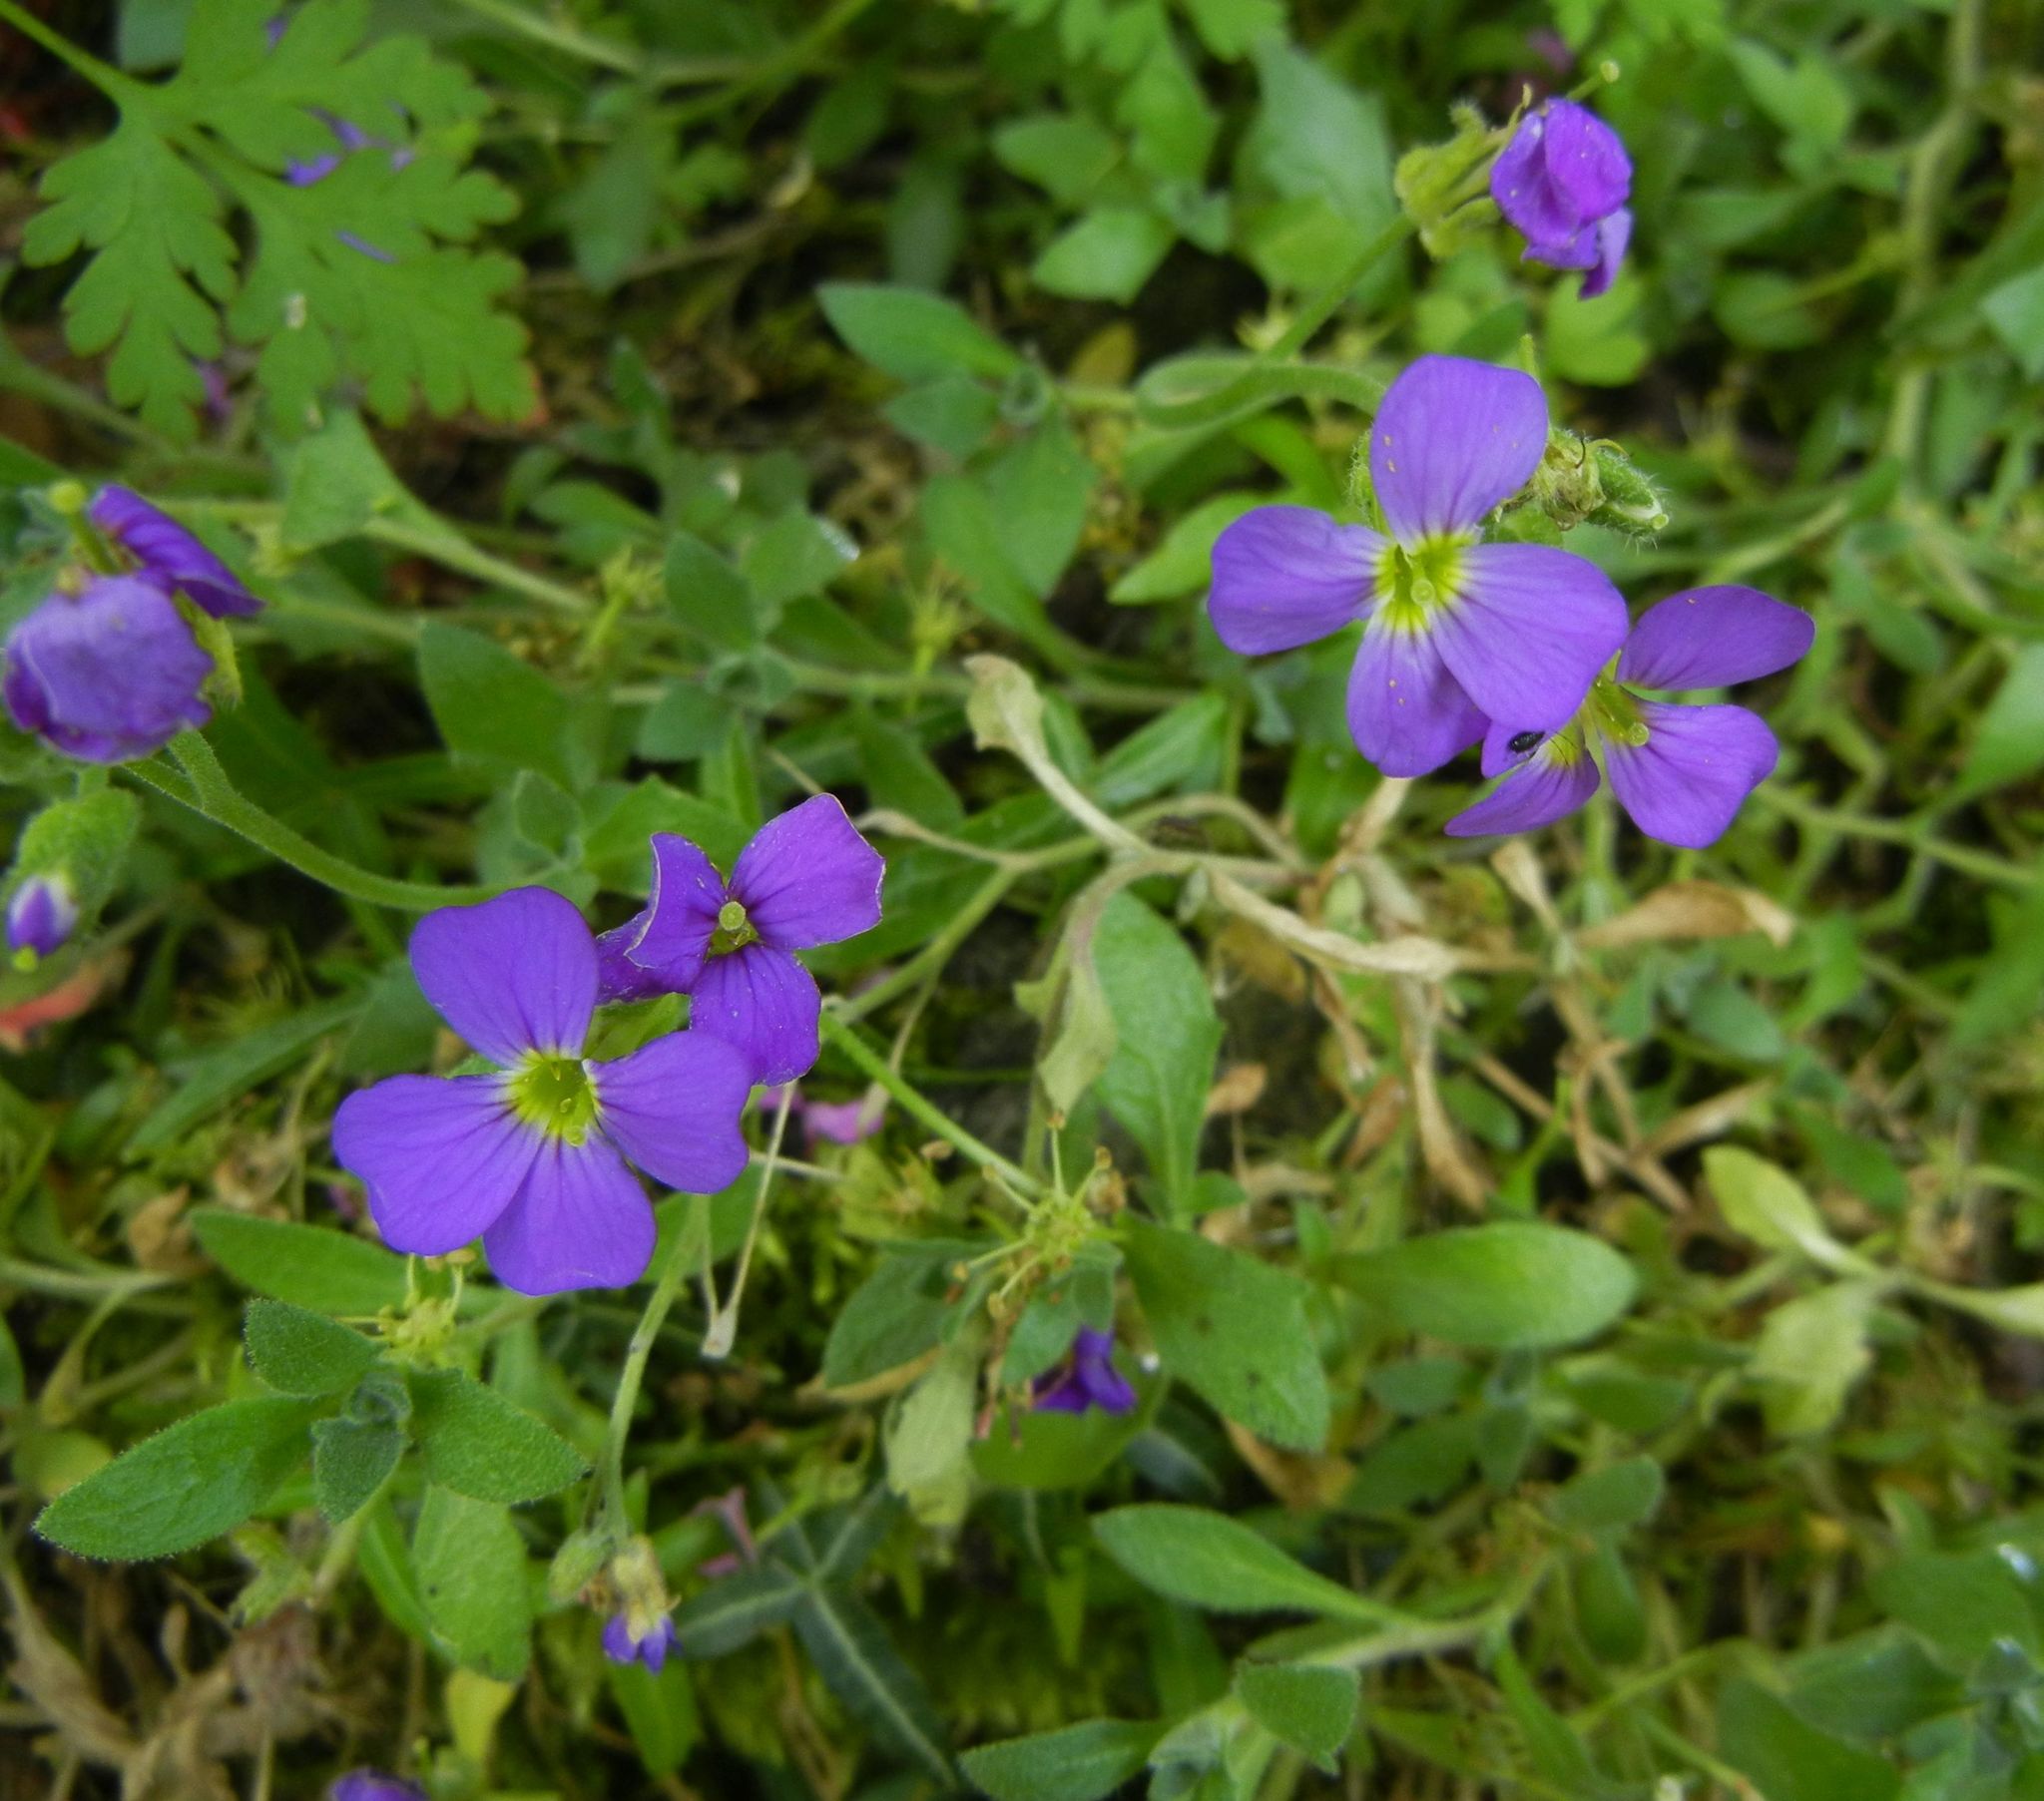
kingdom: Plantae
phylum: Tracheophyta
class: Magnoliopsida
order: Brassicales
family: Brassicaceae
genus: Aubrieta
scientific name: Aubrieta deltoidea
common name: Aubretia
